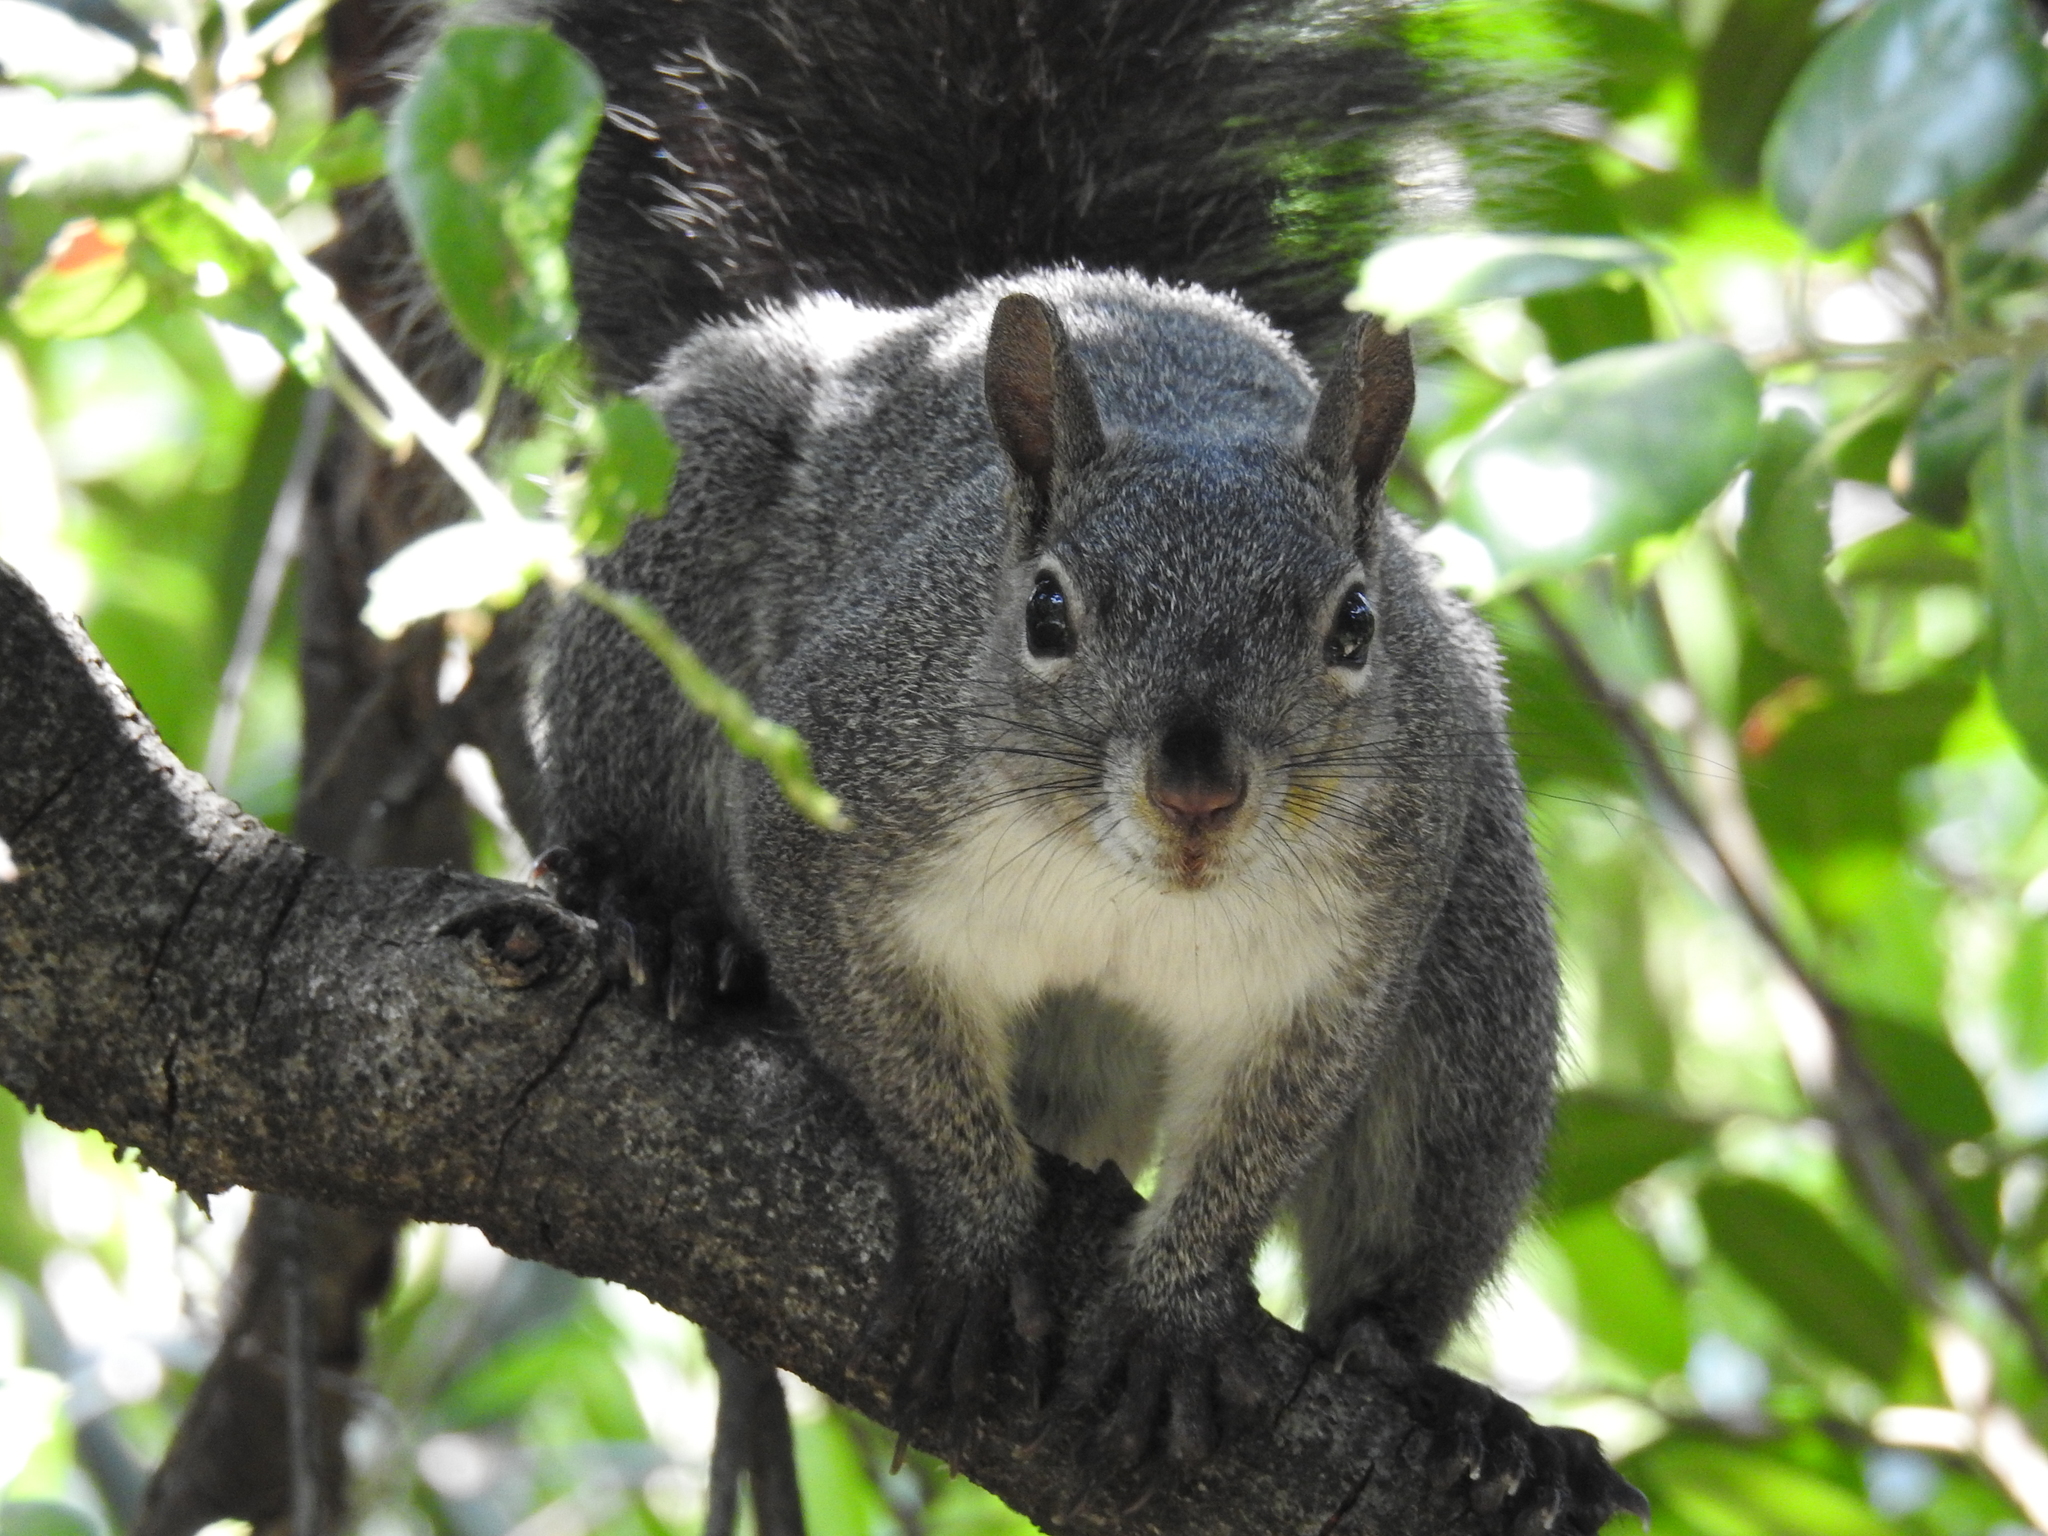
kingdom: Animalia
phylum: Chordata
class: Mammalia
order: Rodentia
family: Sciuridae
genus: Sciurus
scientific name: Sciurus griseus
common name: Western gray squirrel
